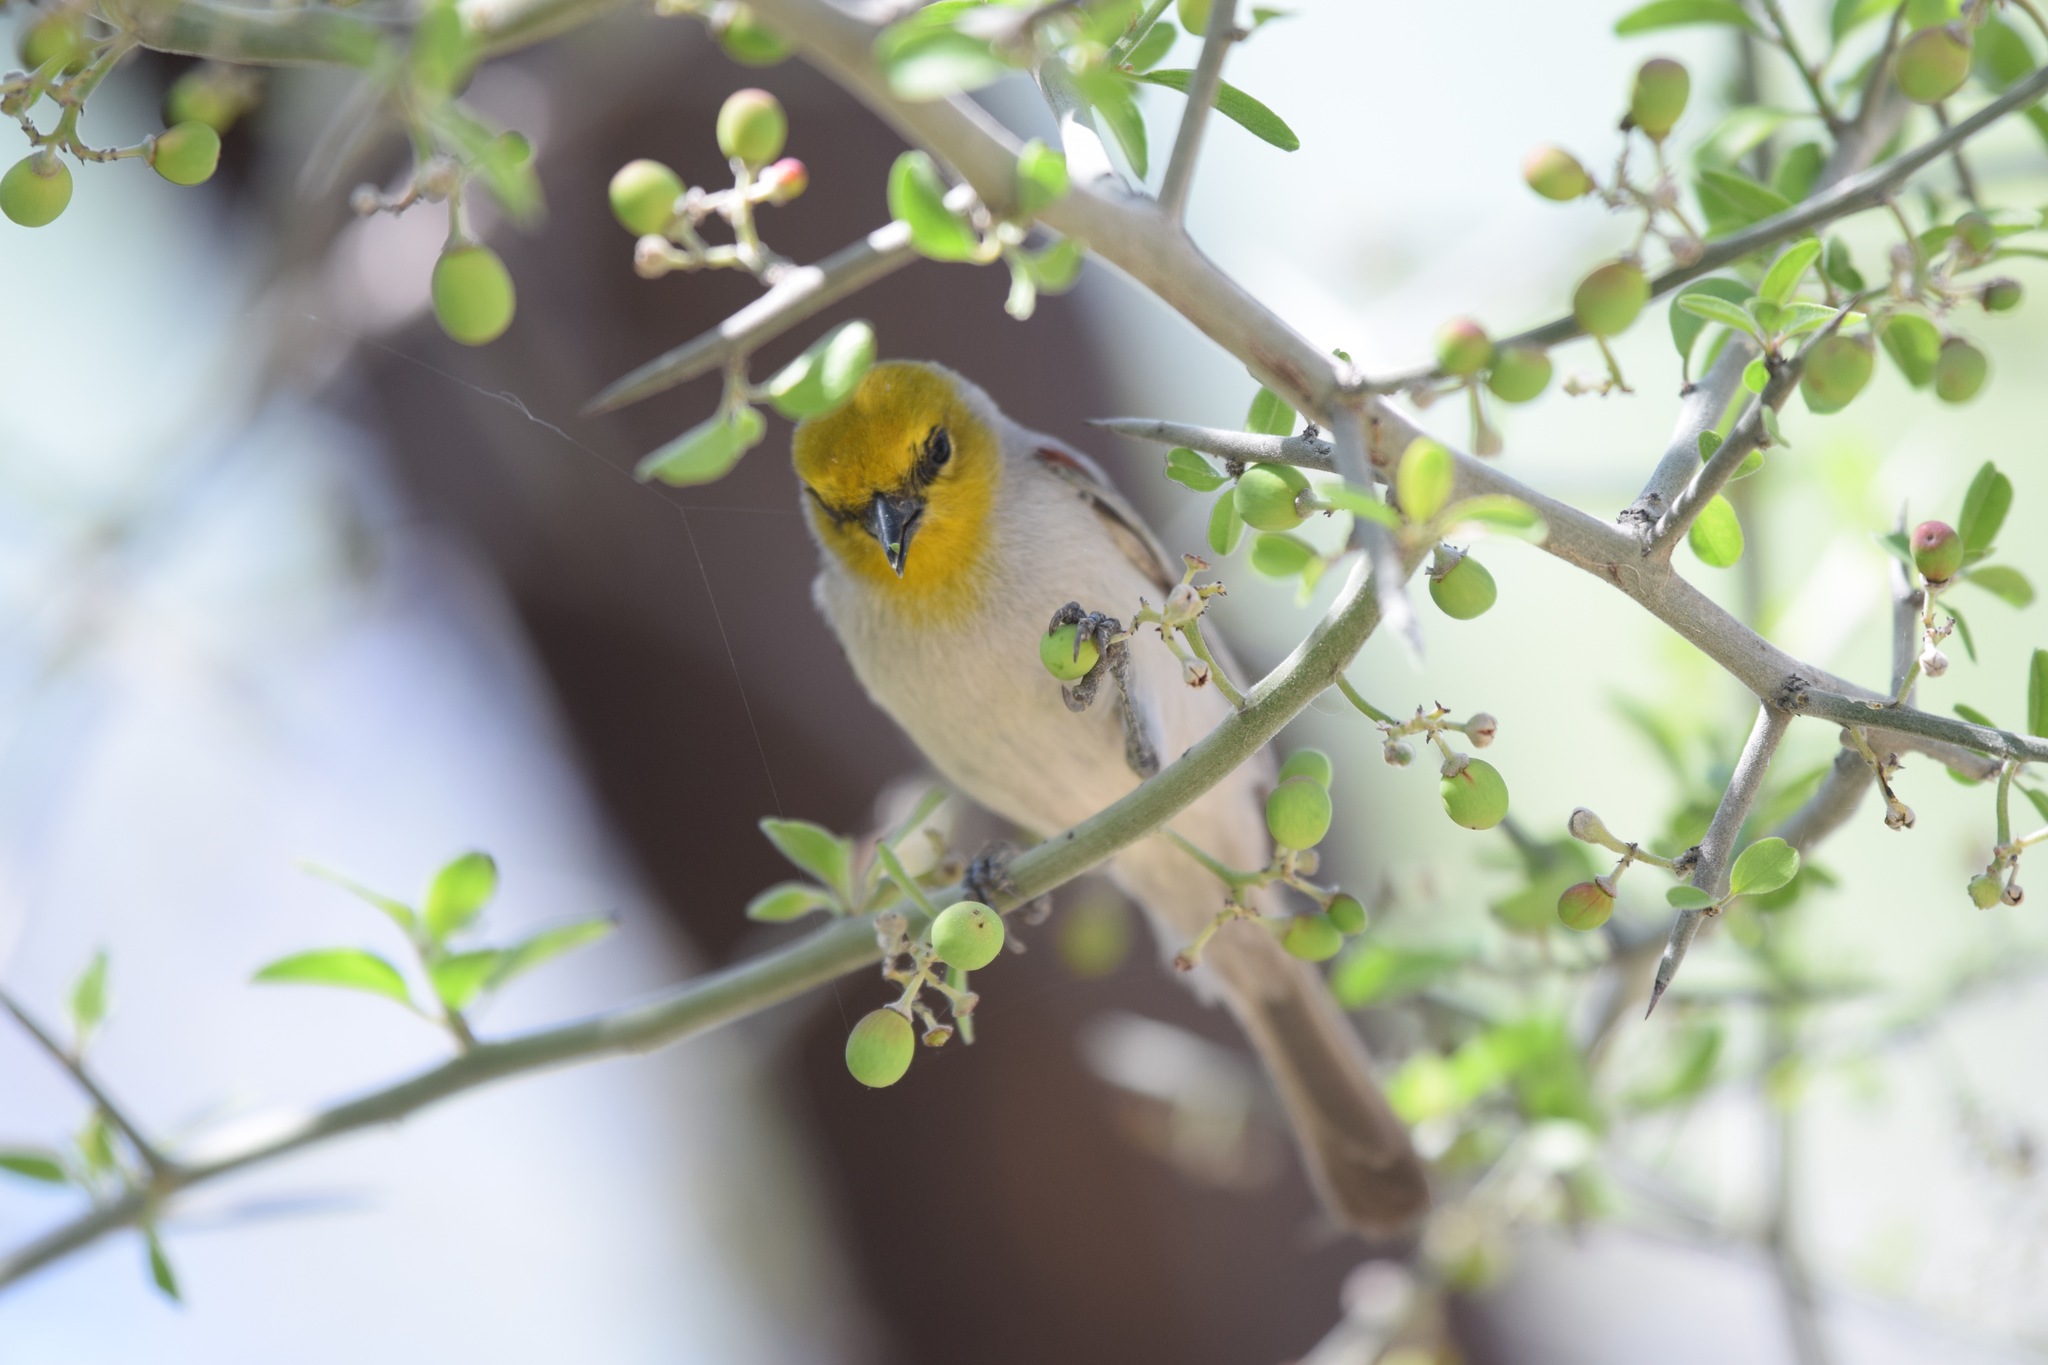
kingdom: Animalia
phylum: Chordata
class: Aves
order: Passeriformes
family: Remizidae
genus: Auriparus
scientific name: Auriparus flaviceps
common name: Verdin
